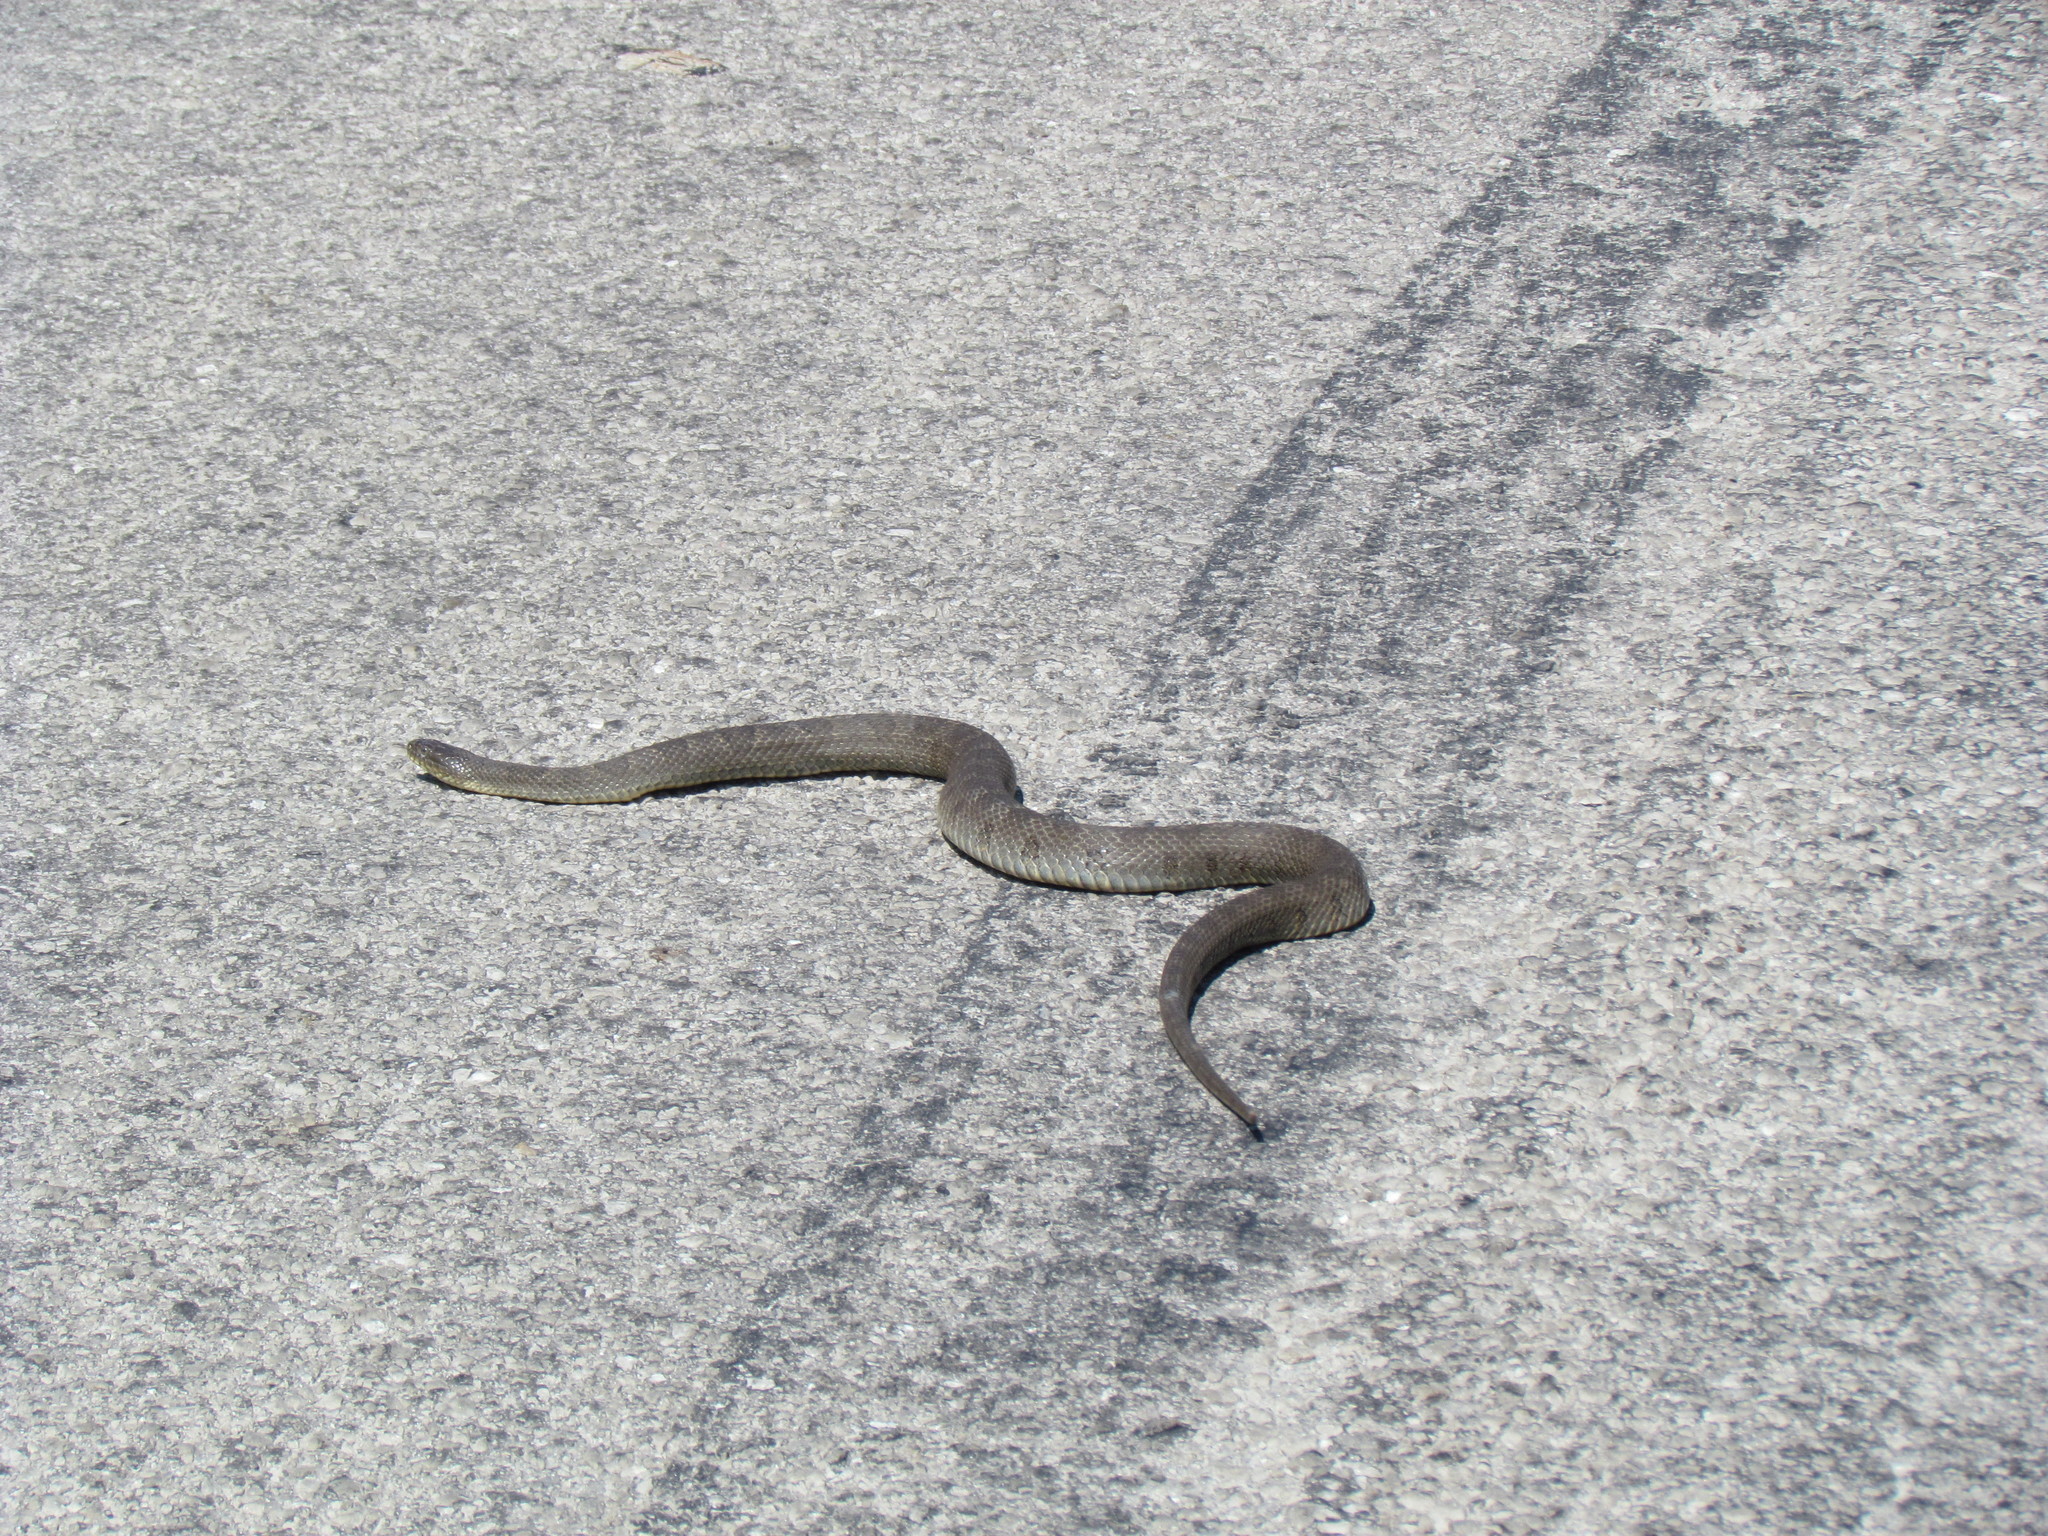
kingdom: Animalia
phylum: Chordata
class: Squamata
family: Colubridae
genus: Nerodia
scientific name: Nerodia sipedon
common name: Northern water snake
